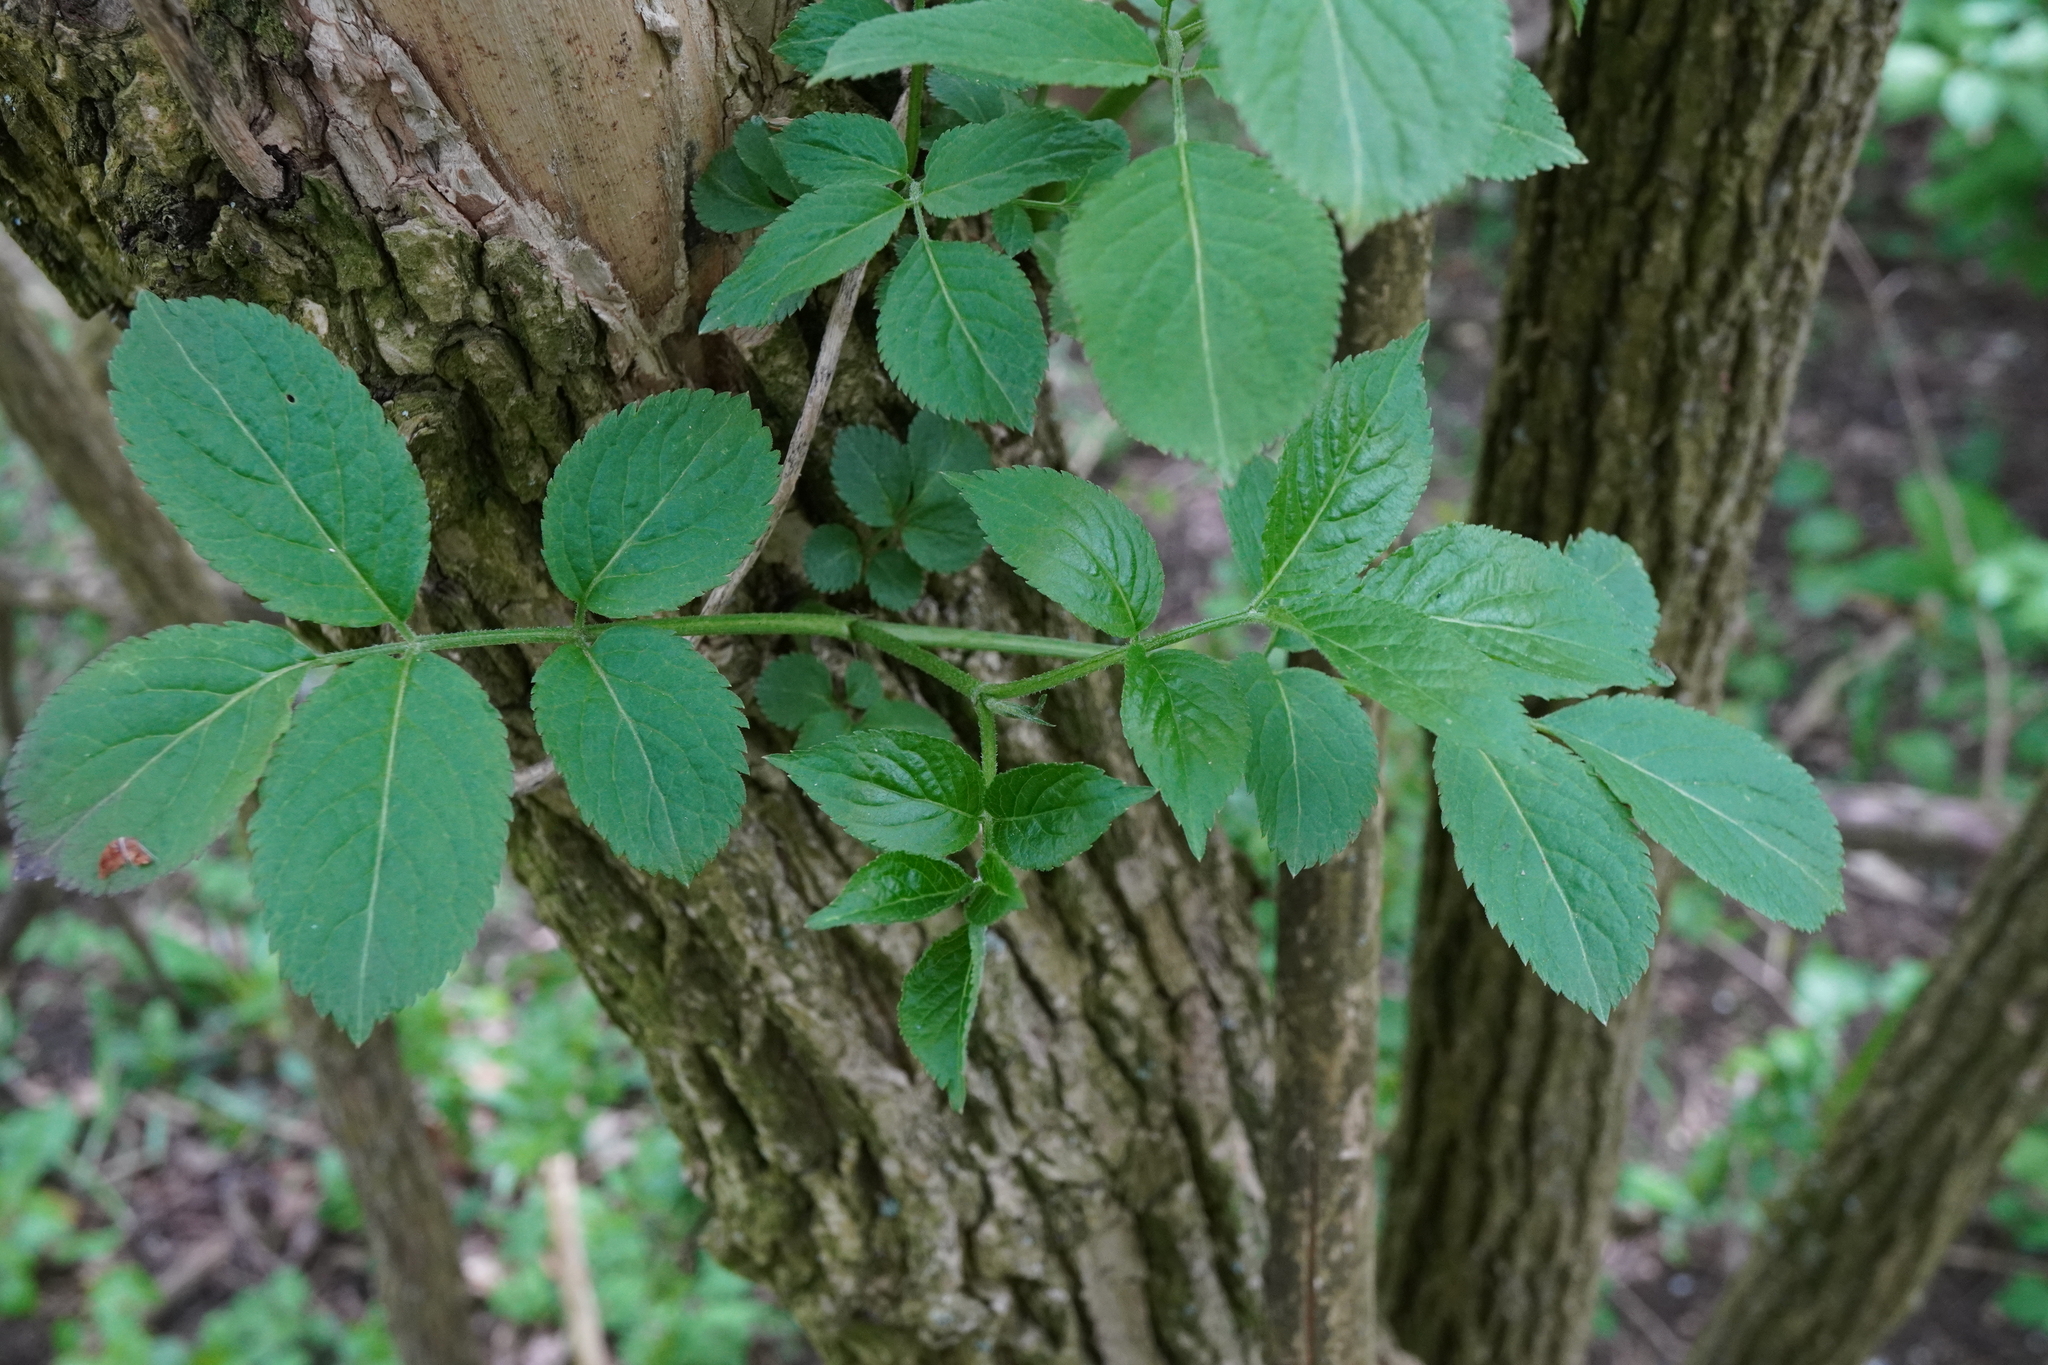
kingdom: Plantae
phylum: Tracheophyta
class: Magnoliopsida
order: Dipsacales
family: Viburnaceae
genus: Sambucus
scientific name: Sambucus nigra
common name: Elder
